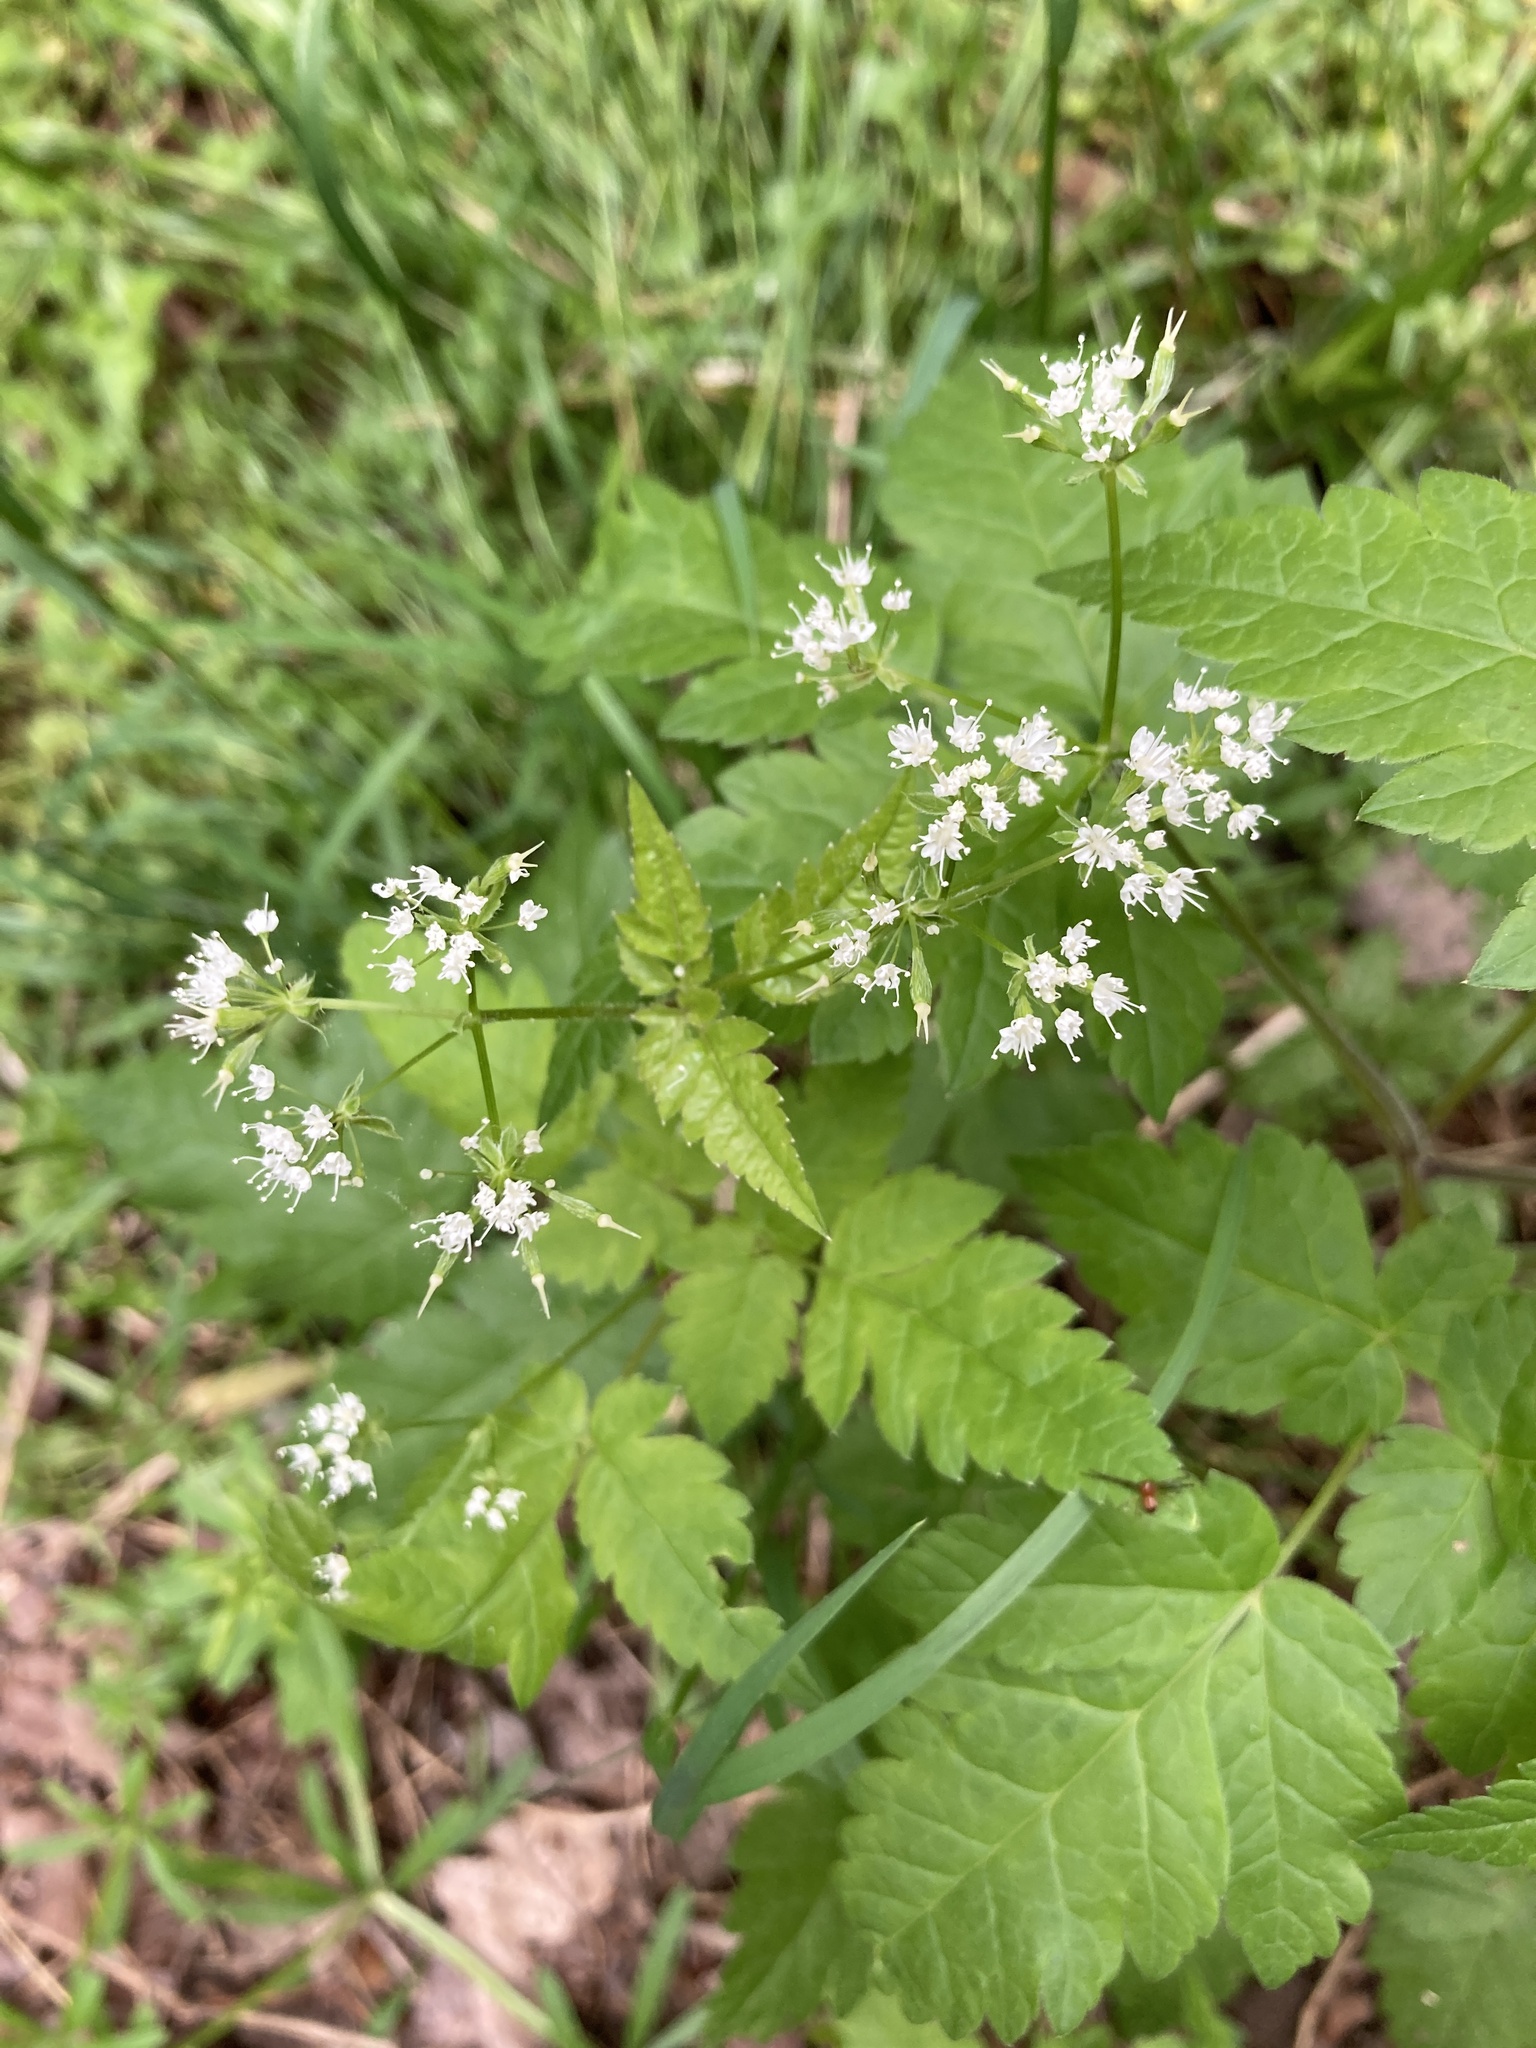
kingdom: Plantae
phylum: Tracheophyta
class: Magnoliopsida
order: Apiales
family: Apiaceae
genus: Osmorhiza
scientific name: Osmorhiza longistylis
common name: Smooth sweet cicely
